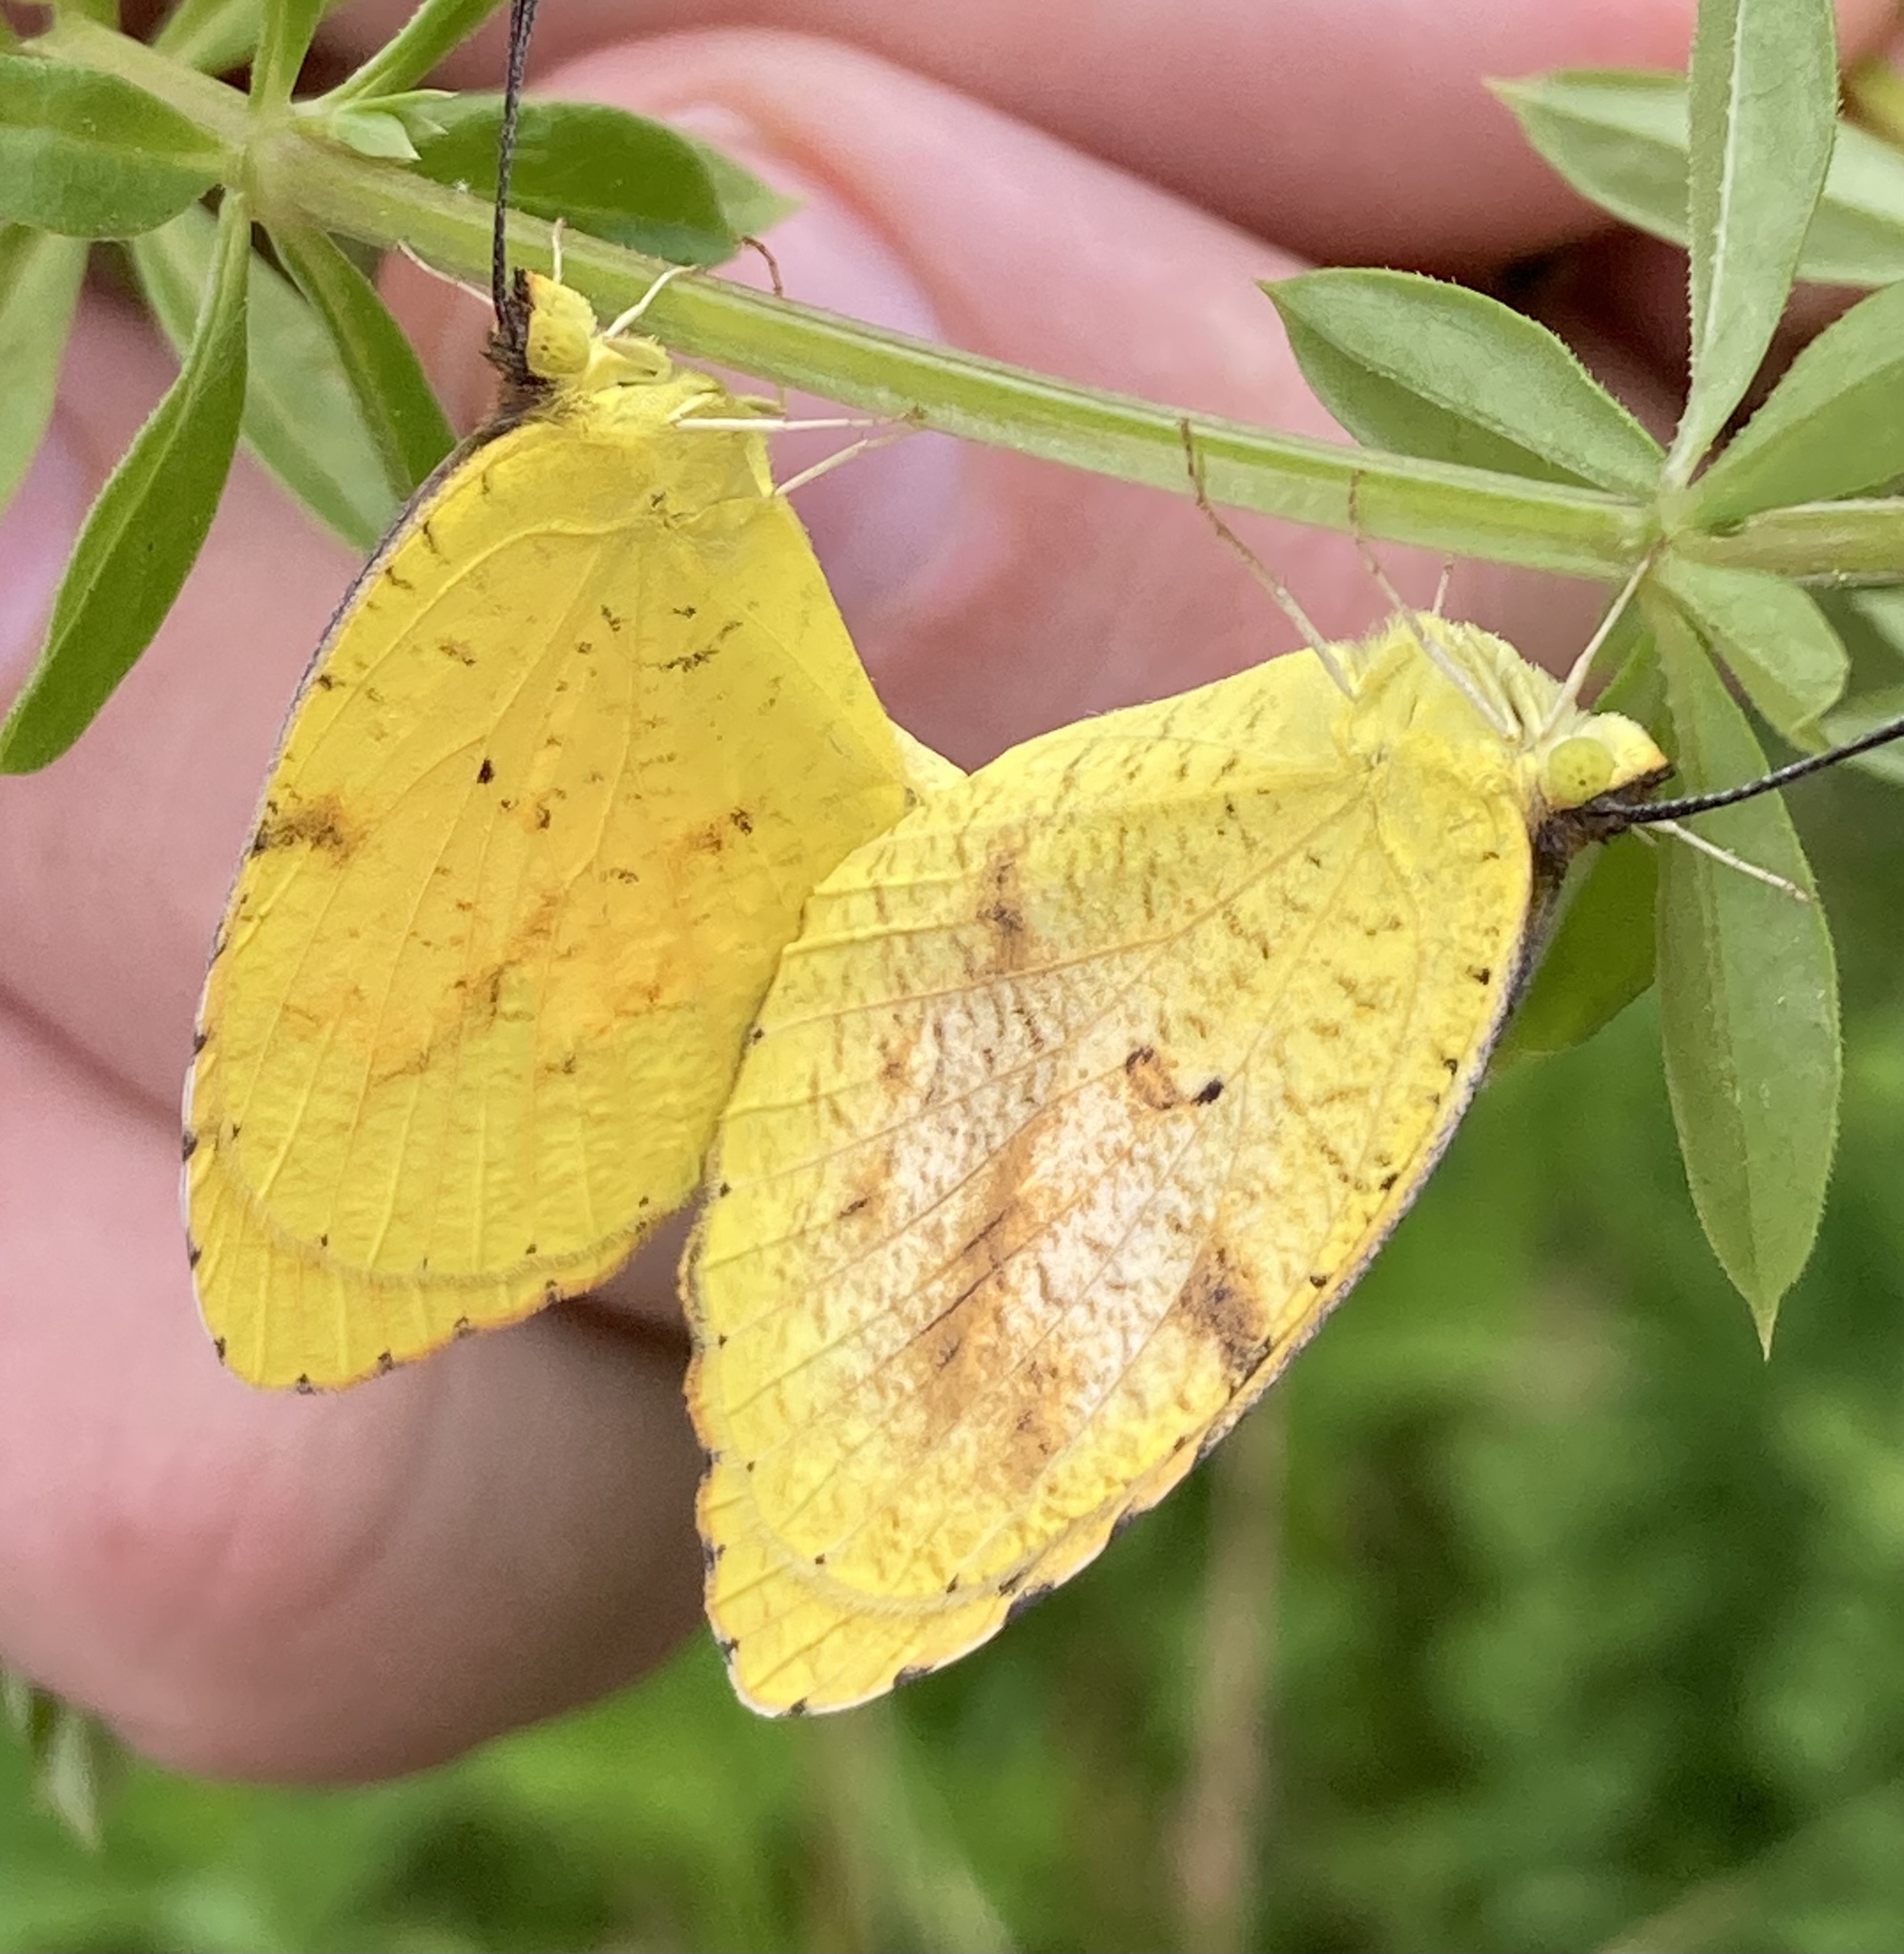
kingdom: Animalia
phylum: Arthropoda
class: Insecta
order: Lepidoptera
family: Pieridae
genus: Abaeis
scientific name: Abaeis nicippe
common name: Sleepy orange
